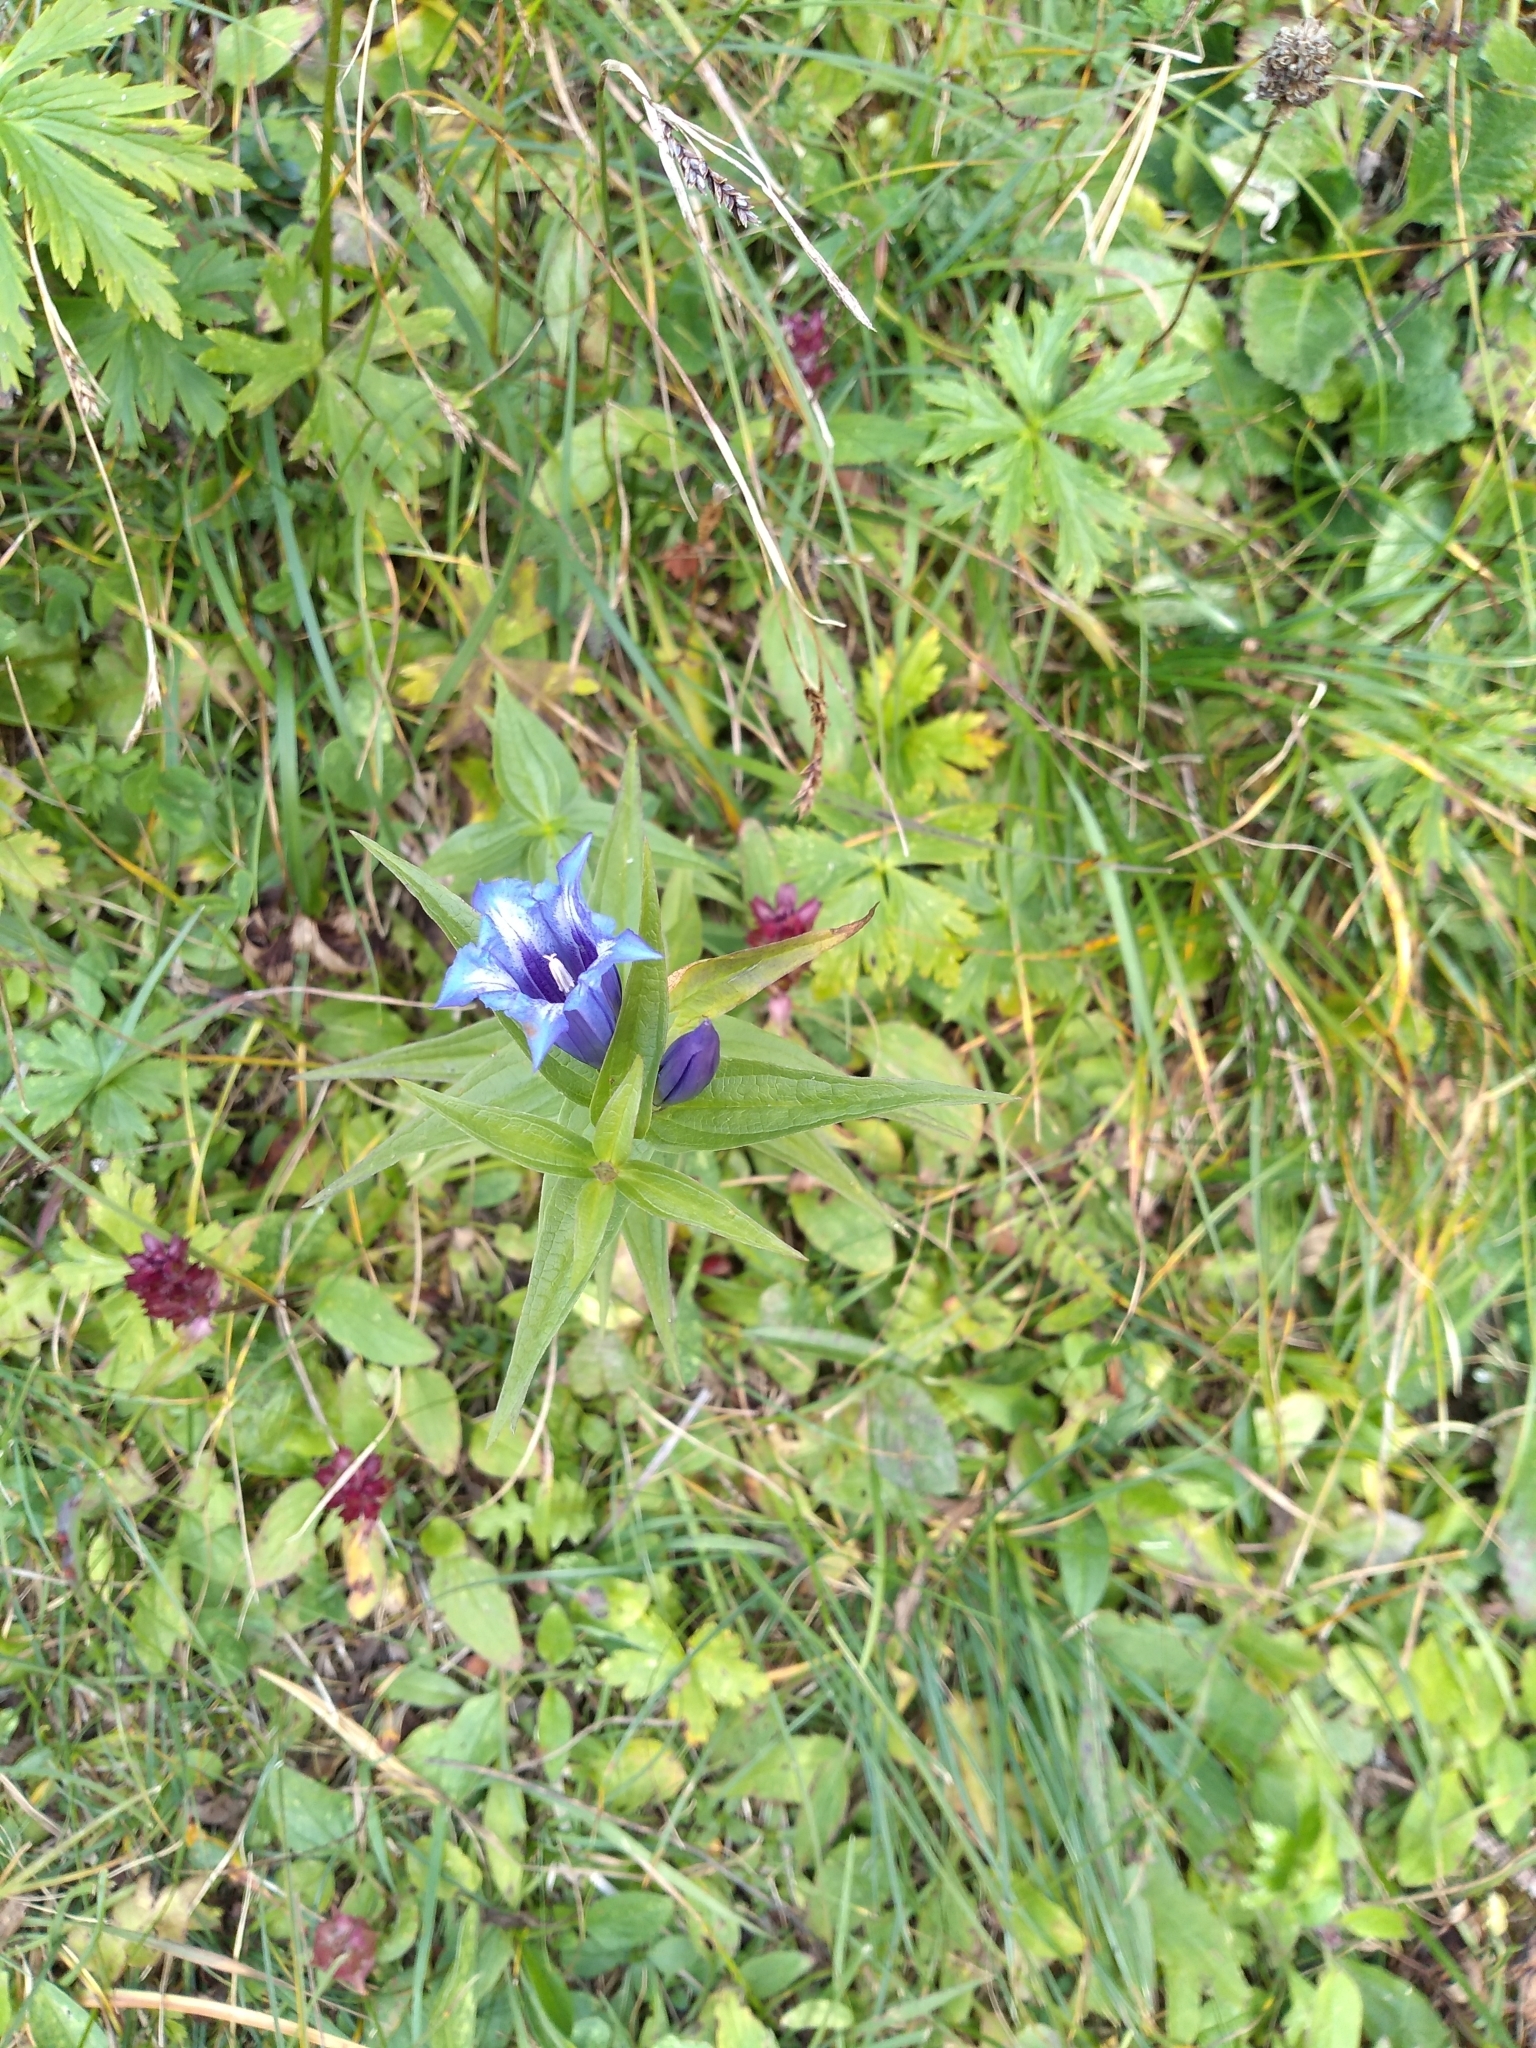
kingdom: Plantae
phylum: Tracheophyta
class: Magnoliopsida
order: Gentianales
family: Gentianaceae
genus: Gentiana
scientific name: Gentiana asclepiadea
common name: Willow gentian
